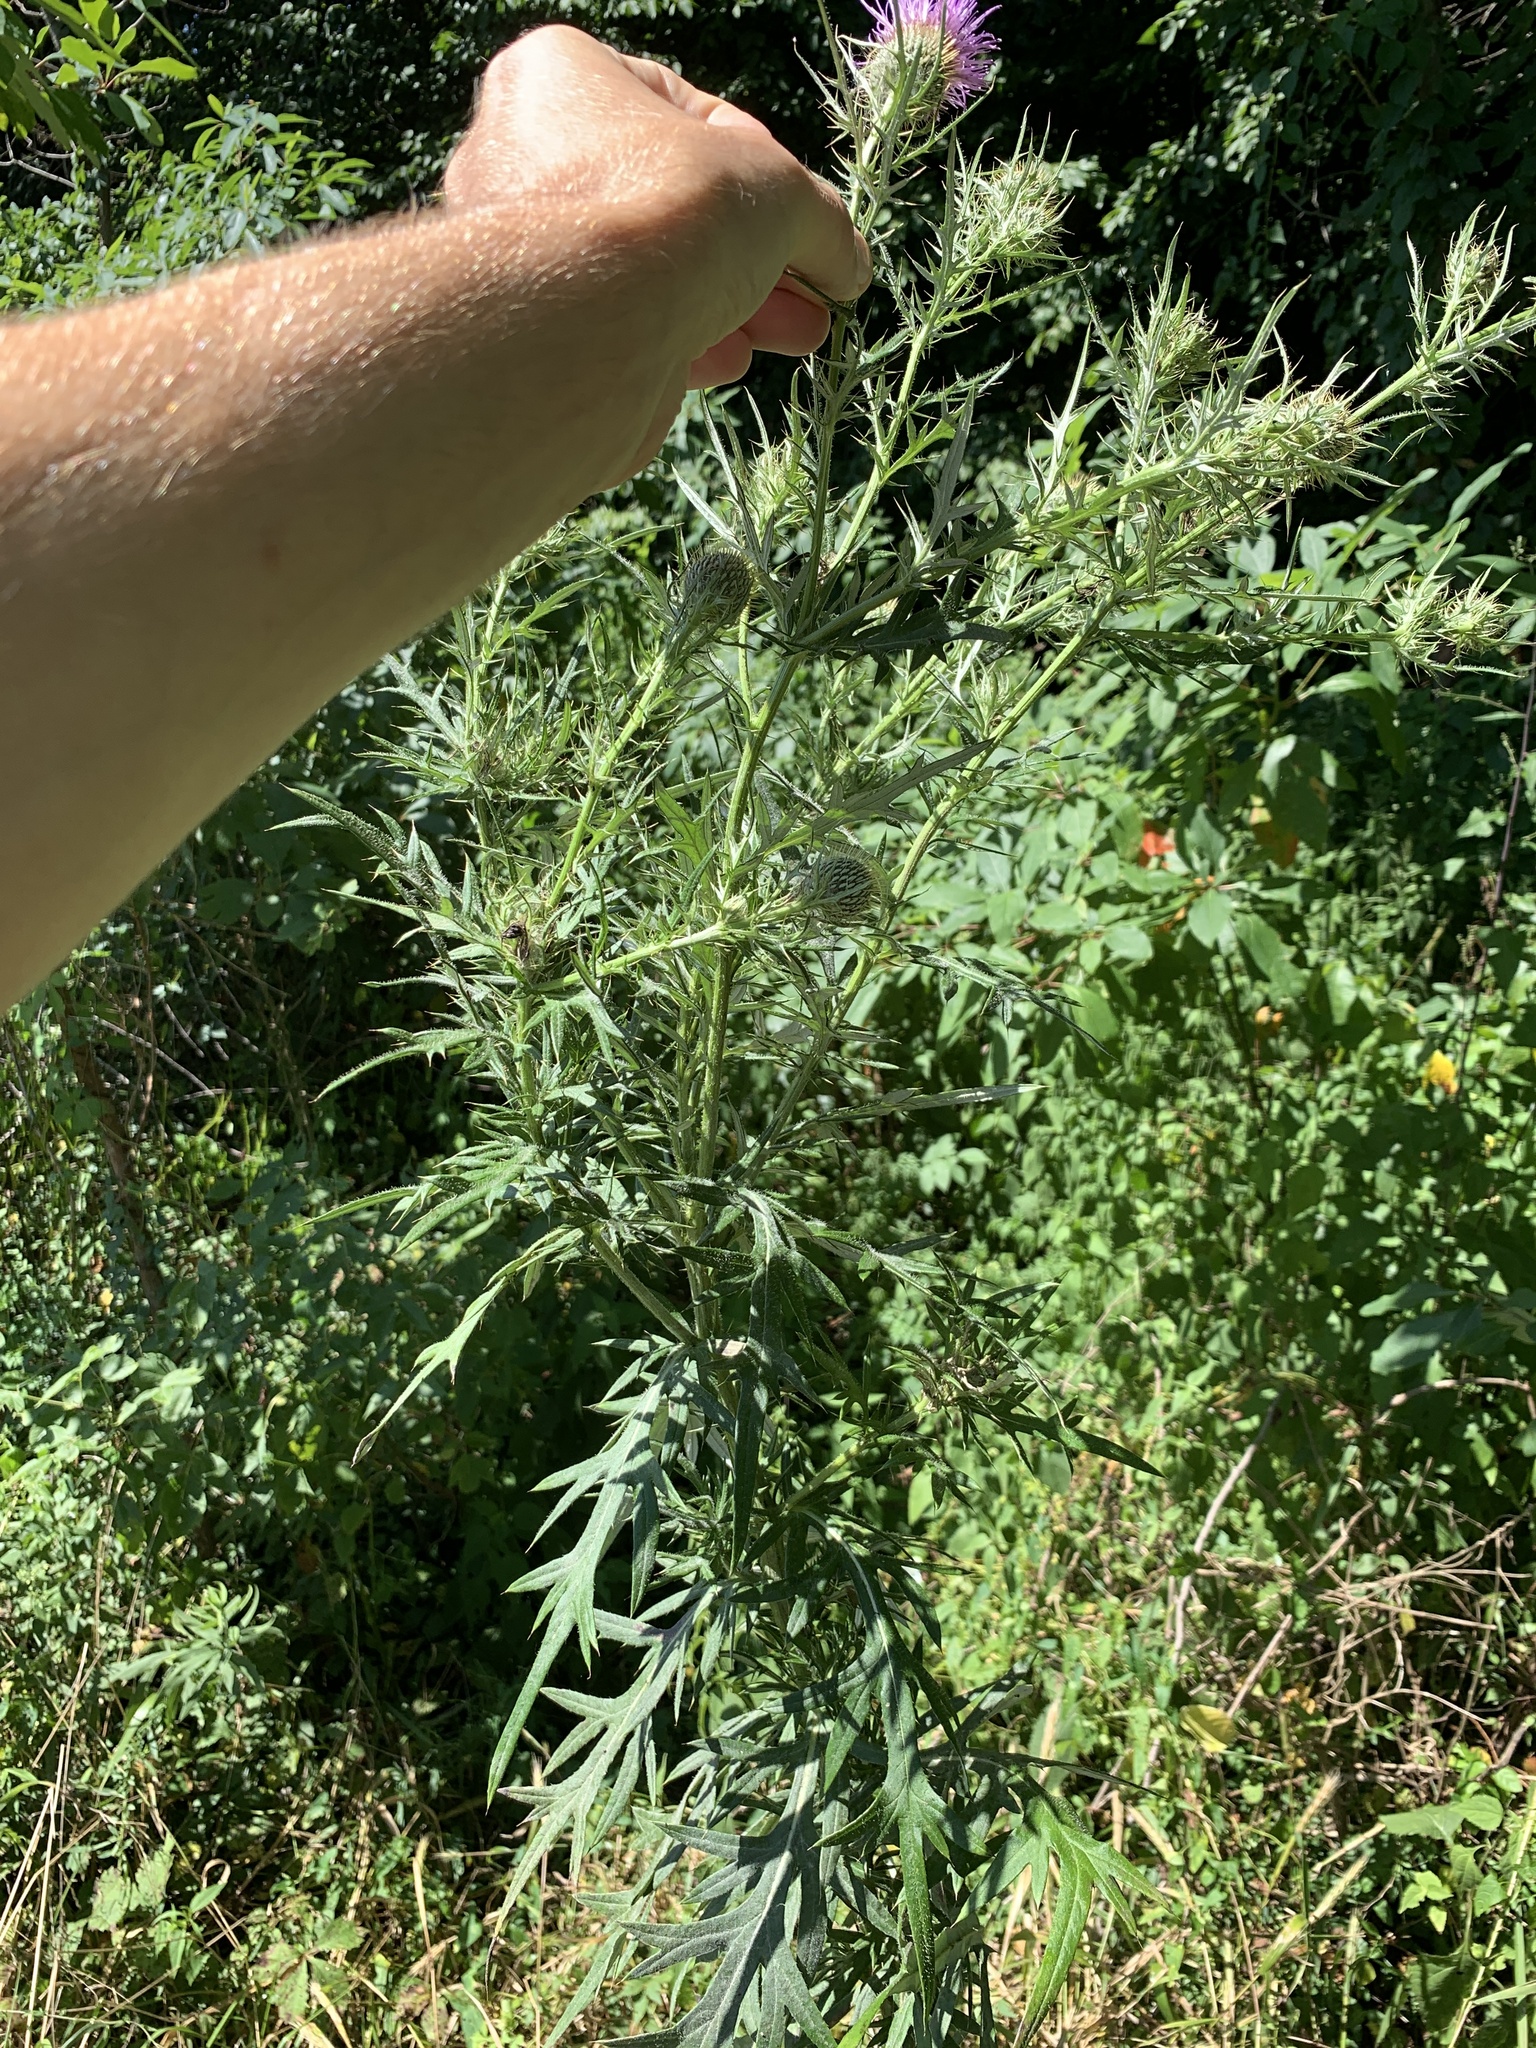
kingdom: Plantae
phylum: Tracheophyta
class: Magnoliopsida
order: Asterales
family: Asteraceae
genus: Cirsium
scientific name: Cirsium discolor
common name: Field thistle
